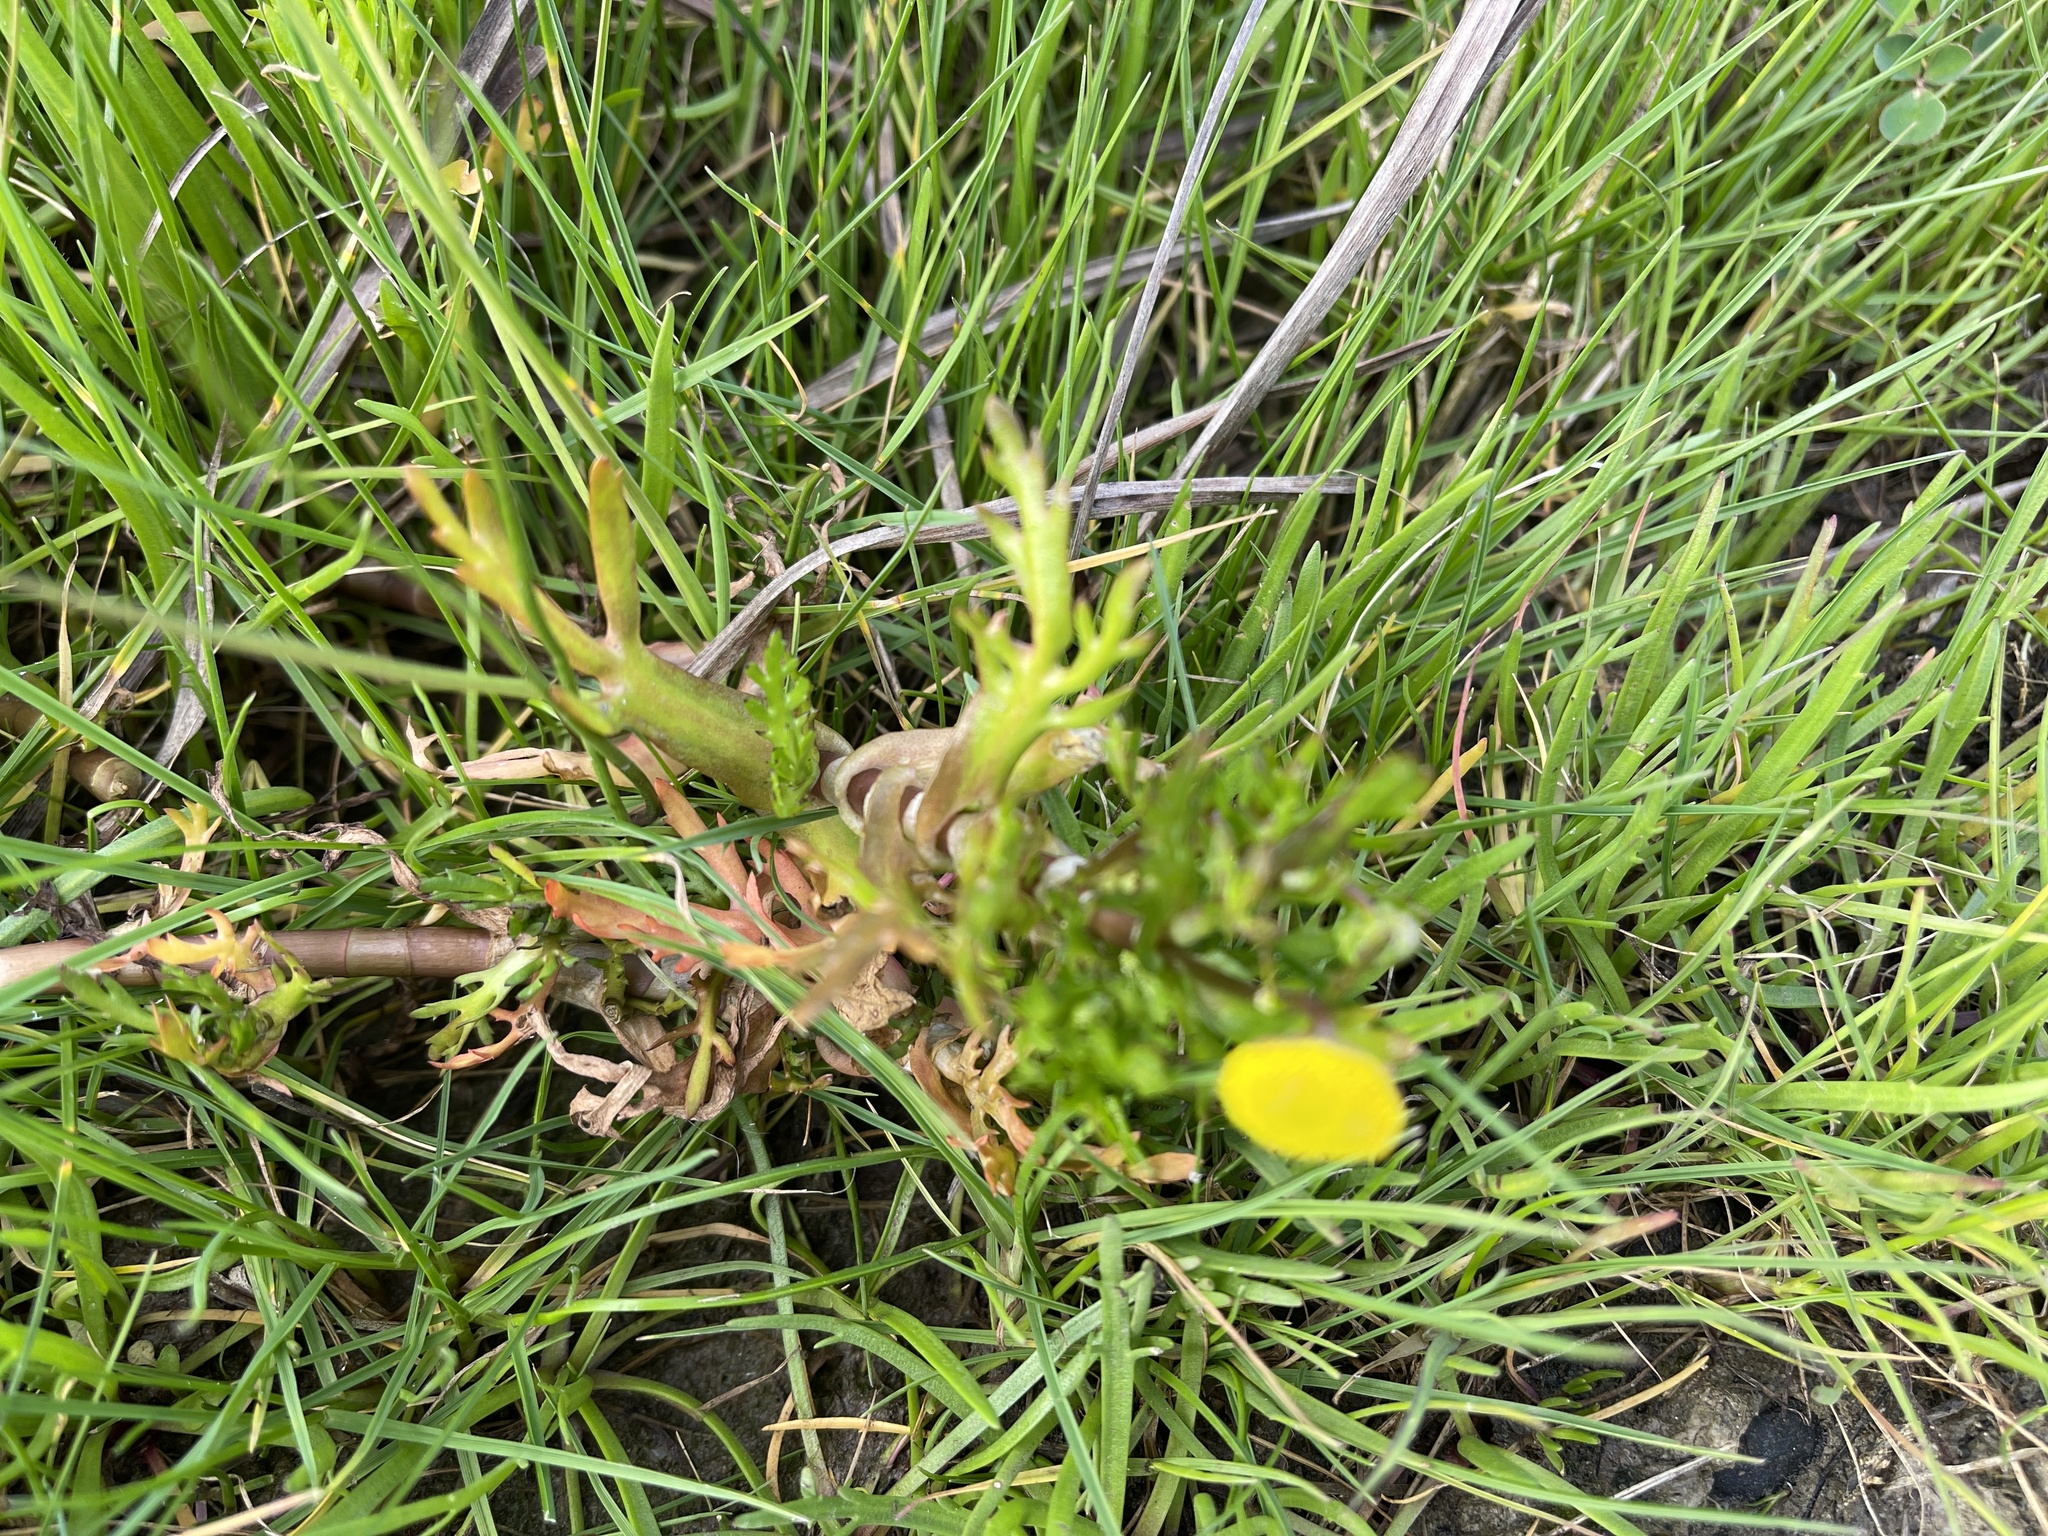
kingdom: Plantae
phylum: Tracheophyta
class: Magnoliopsida
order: Asterales
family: Asteraceae
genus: Cotula
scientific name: Cotula coronopifolia
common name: Buttonweed
